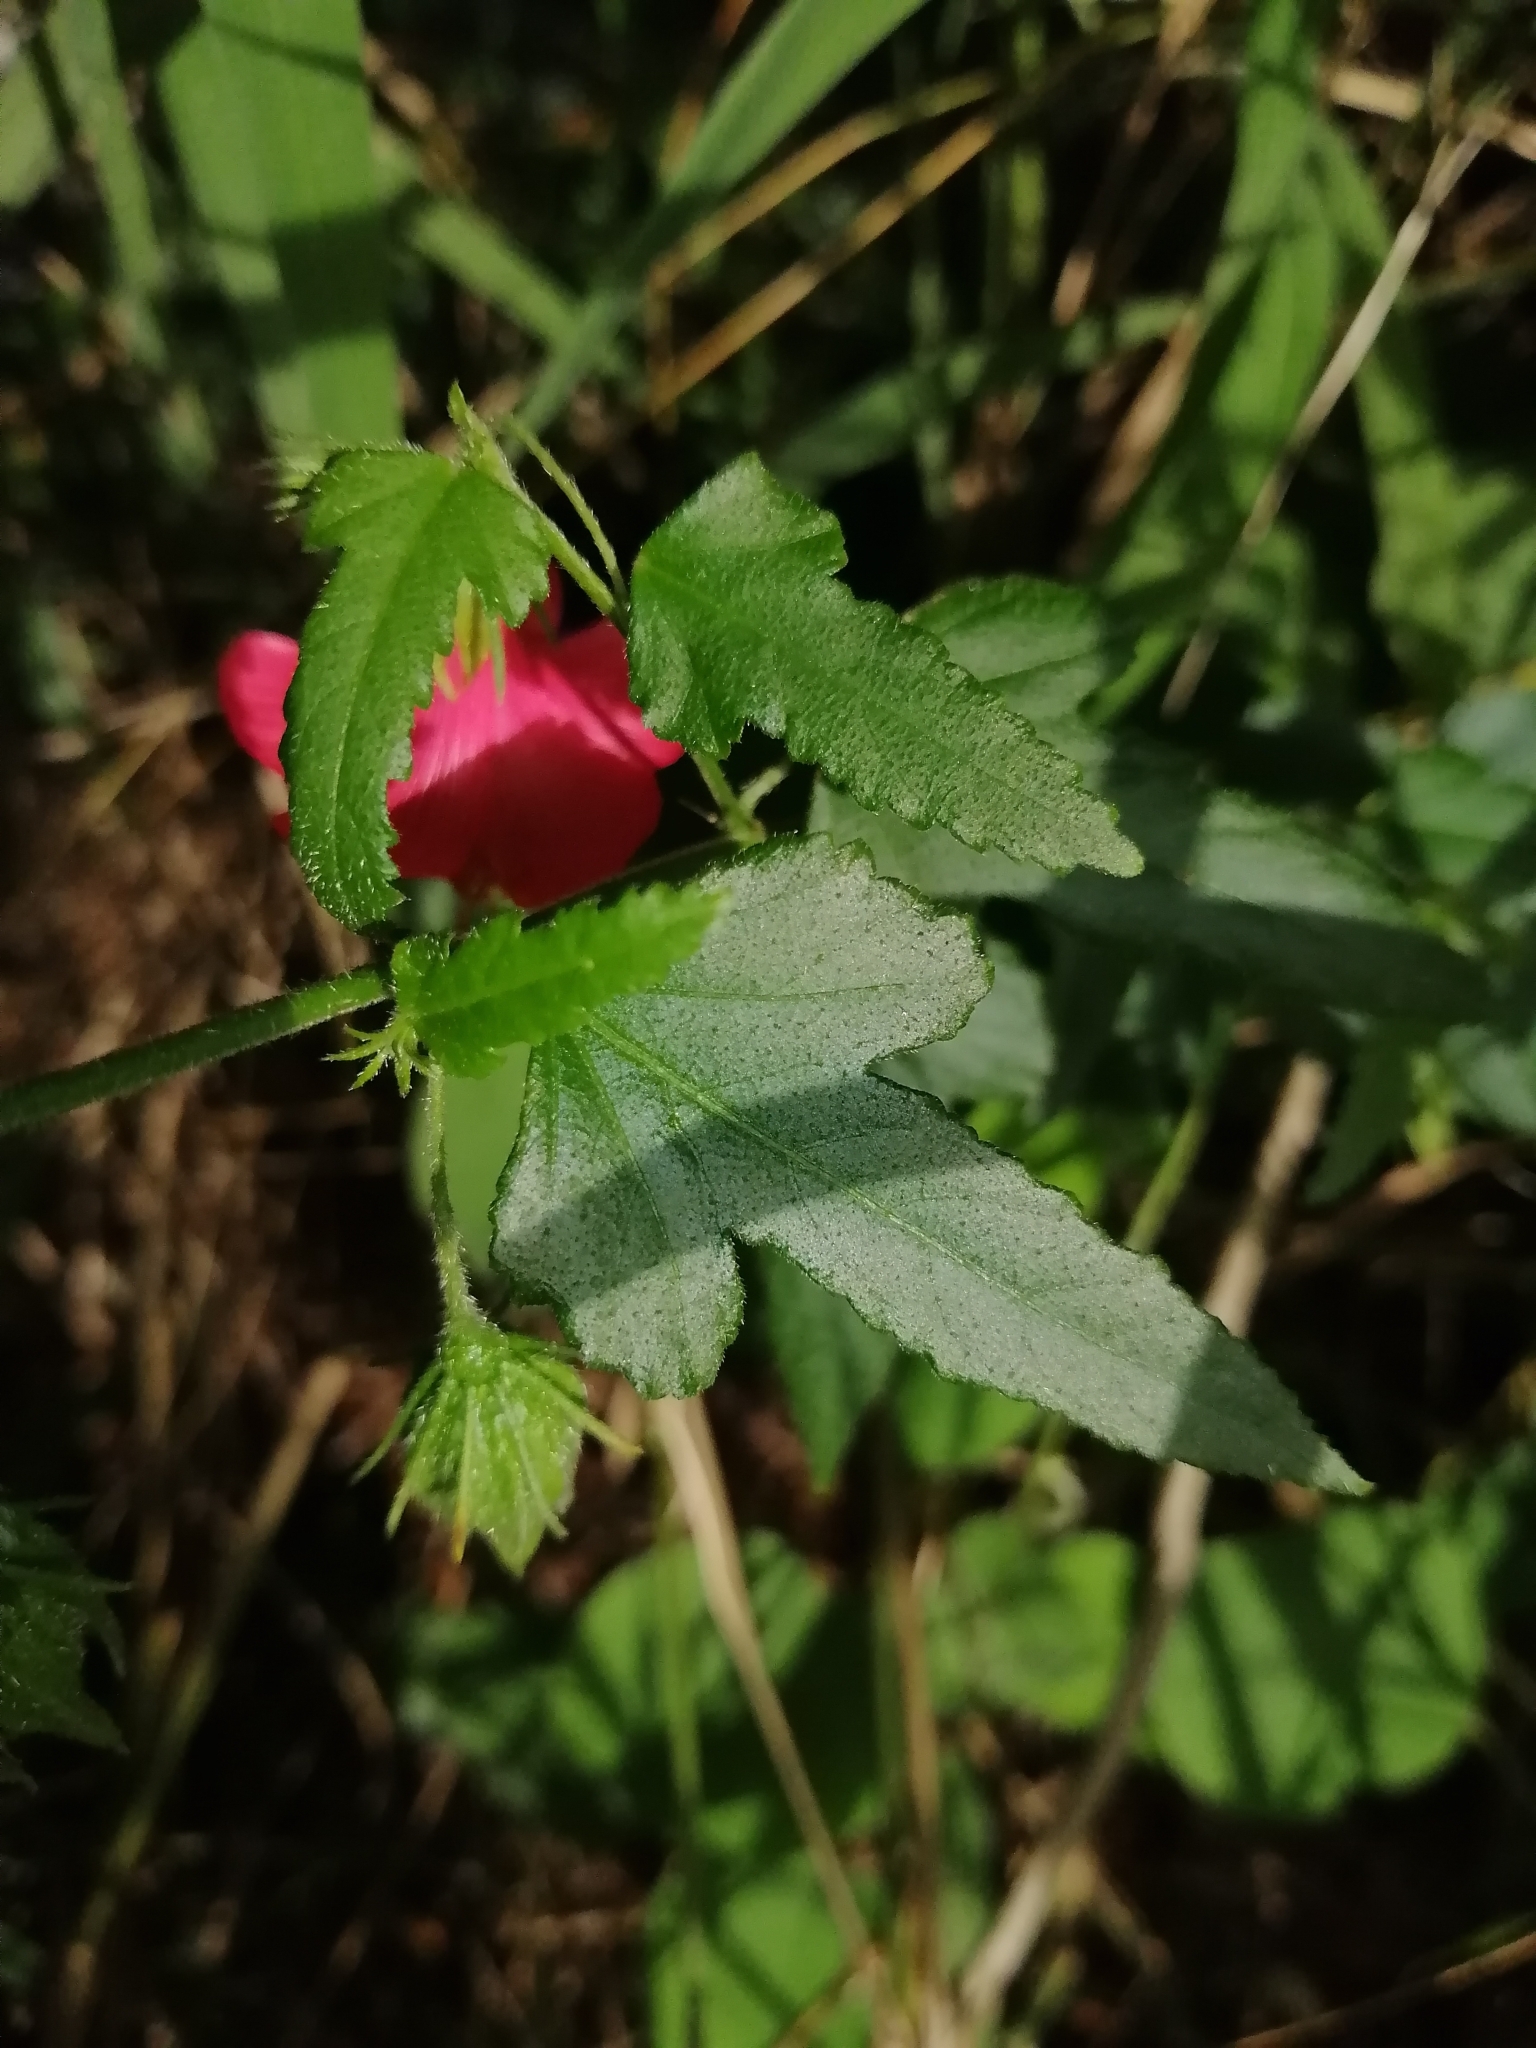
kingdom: Plantae
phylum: Tracheophyta
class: Magnoliopsida
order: Malvales
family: Malvaceae
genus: Hibiscus
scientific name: Hibiscus poeppigii
